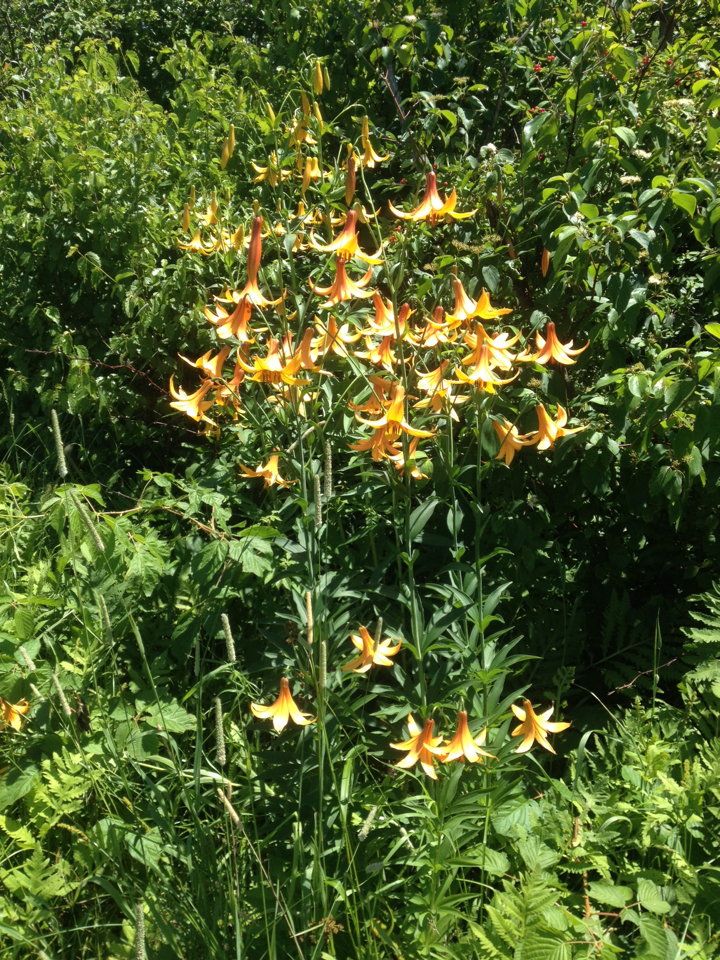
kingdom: Plantae
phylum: Tracheophyta
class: Liliopsida
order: Liliales
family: Liliaceae
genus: Lilium
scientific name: Lilium canadense
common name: Canada lily
